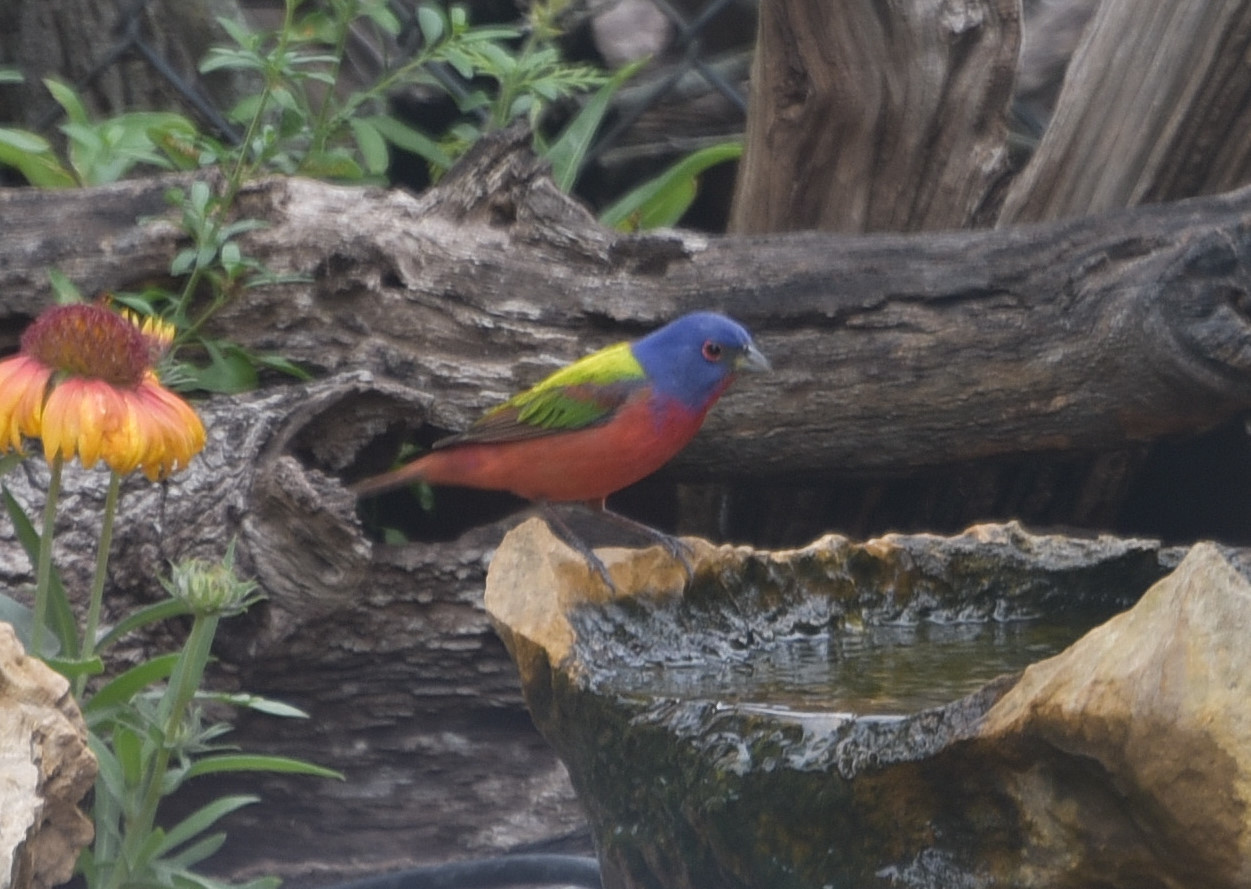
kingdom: Animalia
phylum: Chordata
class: Aves
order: Passeriformes
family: Cardinalidae
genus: Passerina
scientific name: Passerina ciris
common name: Painted bunting
